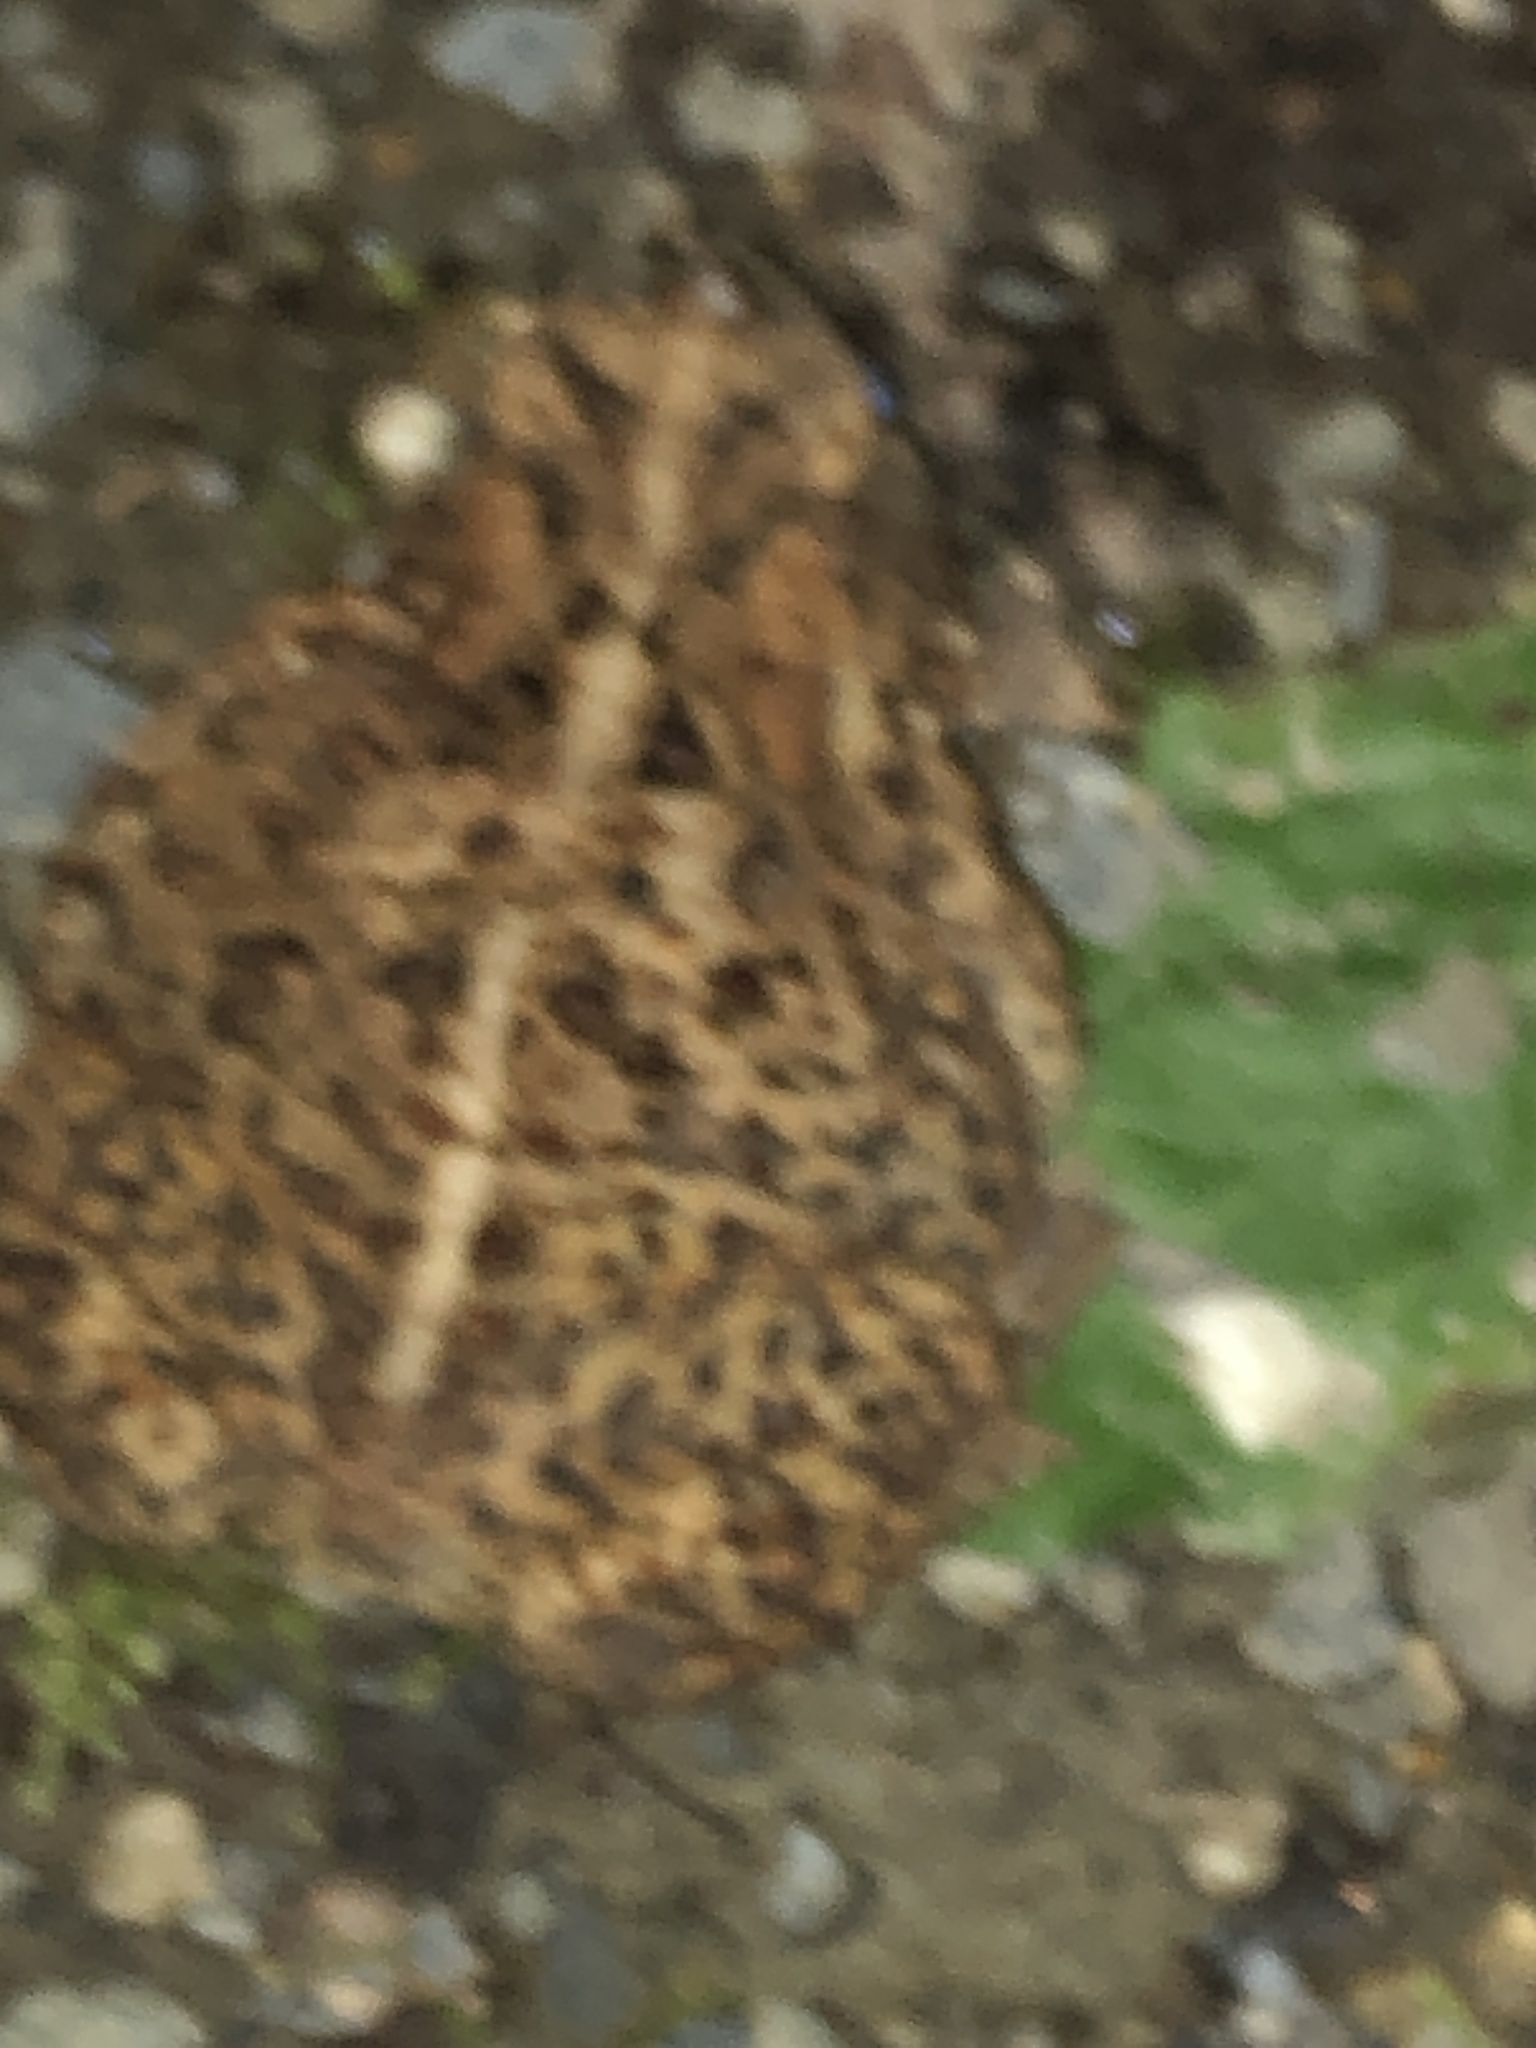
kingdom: Animalia
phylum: Chordata
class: Amphibia
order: Anura
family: Bufonidae
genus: Anaxyrus
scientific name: Anaxyrus americanus
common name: American toad
